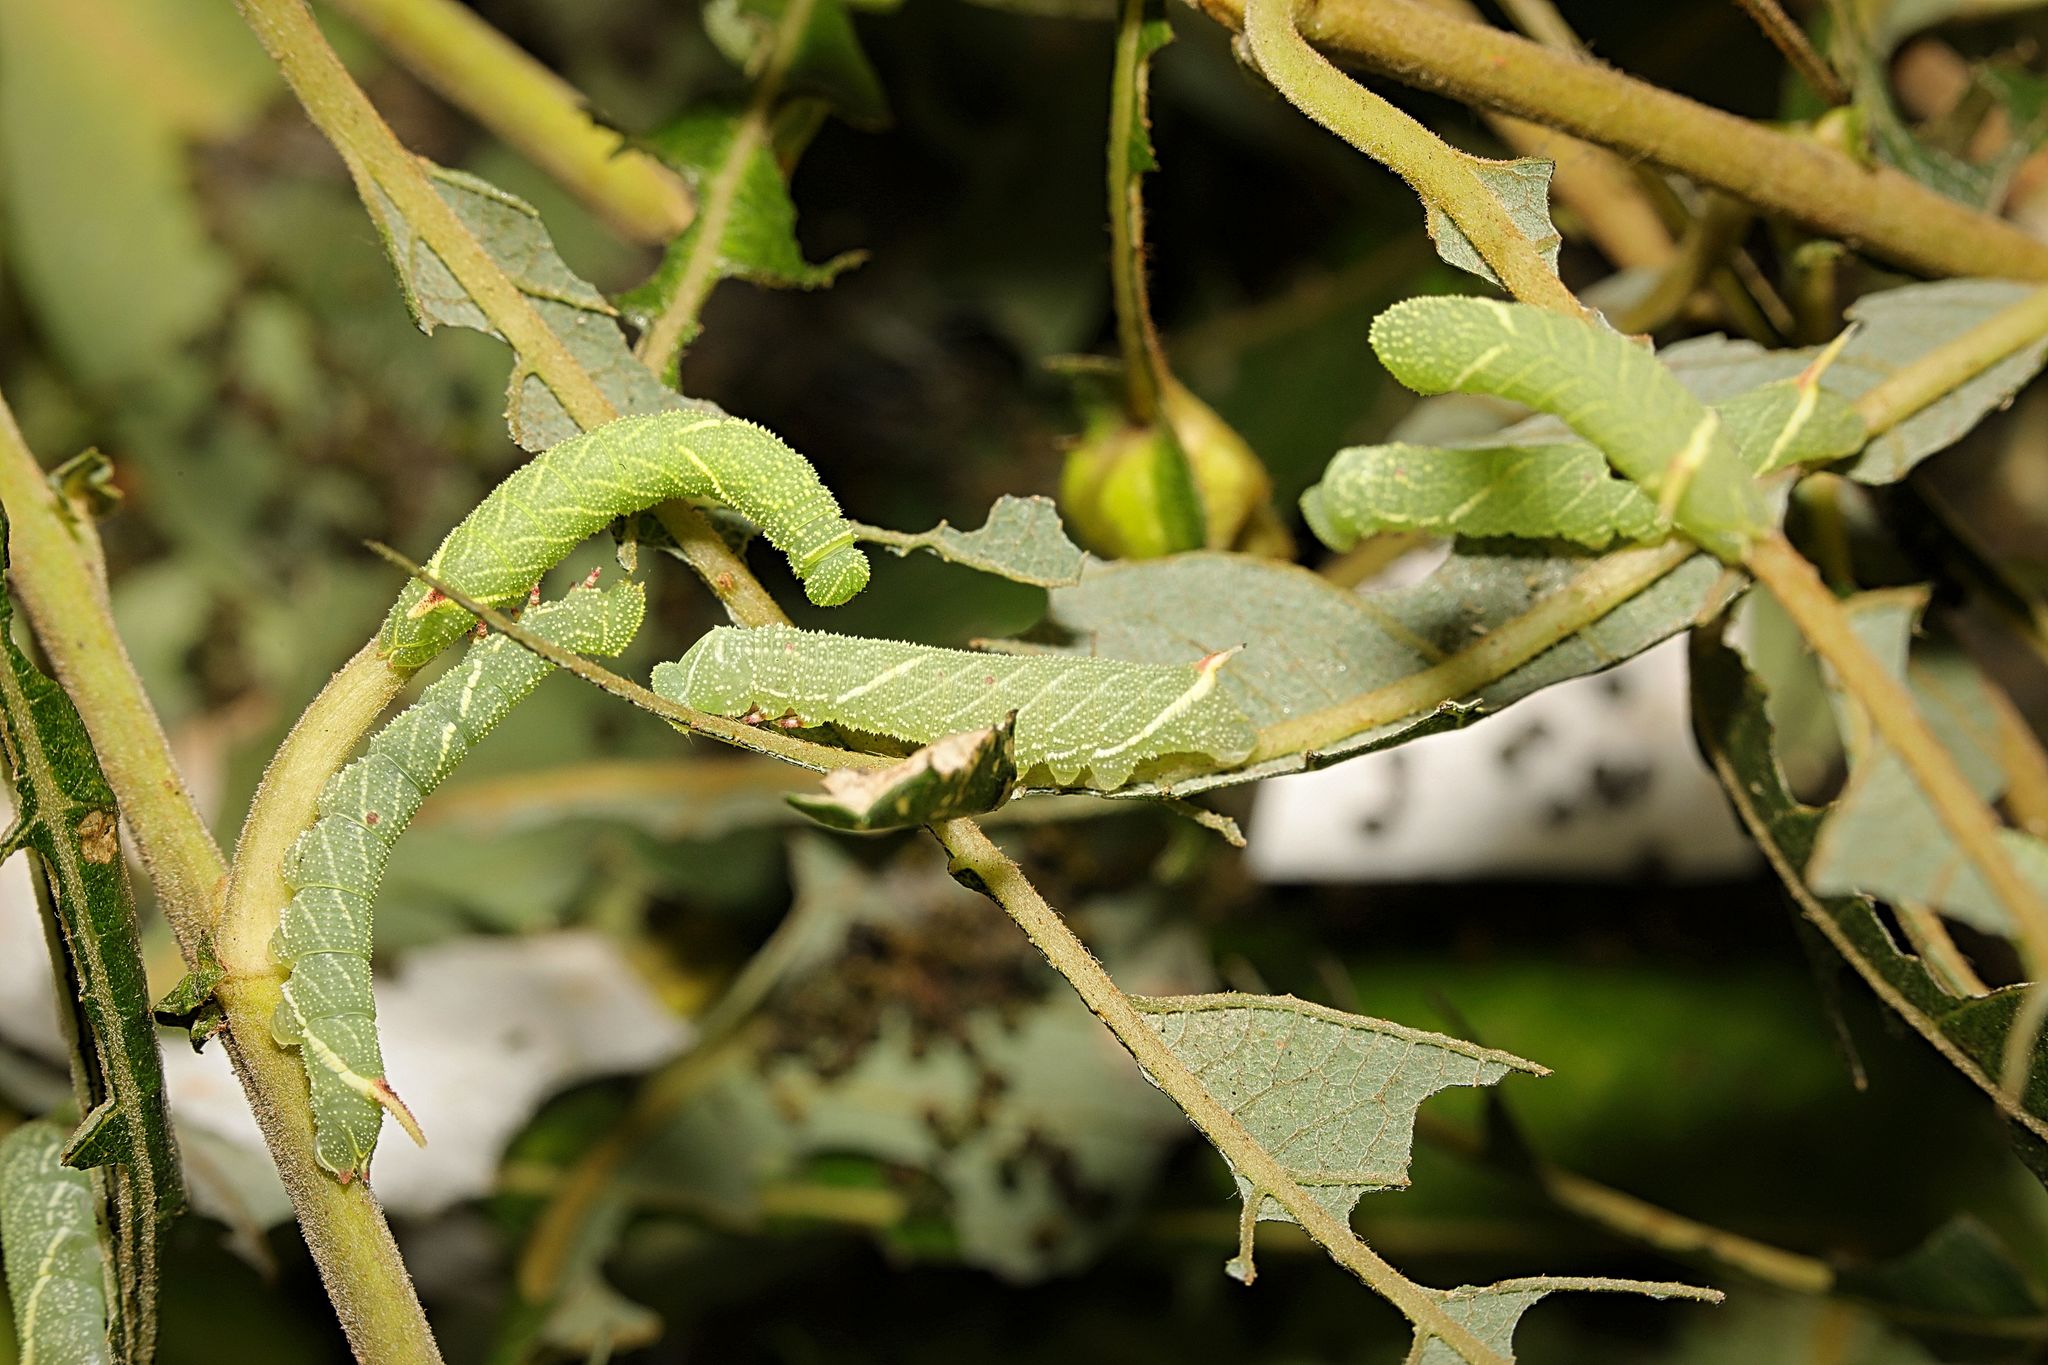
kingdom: Animalia
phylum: Arthropoda
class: Insecta
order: Lepidoptera
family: Sphingidae
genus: Laothoe
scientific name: Laothoe populi
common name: Poplar hawk-moth
